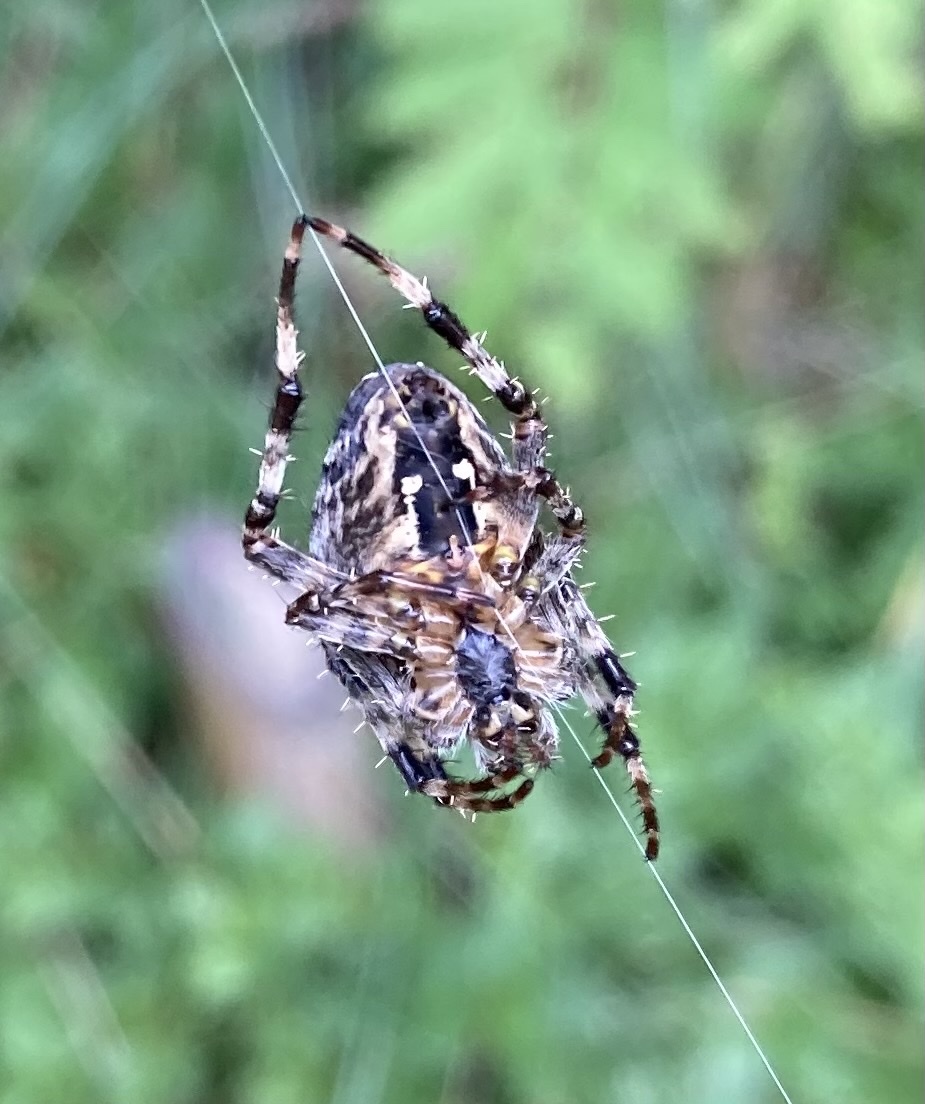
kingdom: Animalia
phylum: Arthropoda
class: Arachnida
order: Araneae
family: Araneidae
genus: Araneus
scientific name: Araneus diadematus
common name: Cross orbweaver
